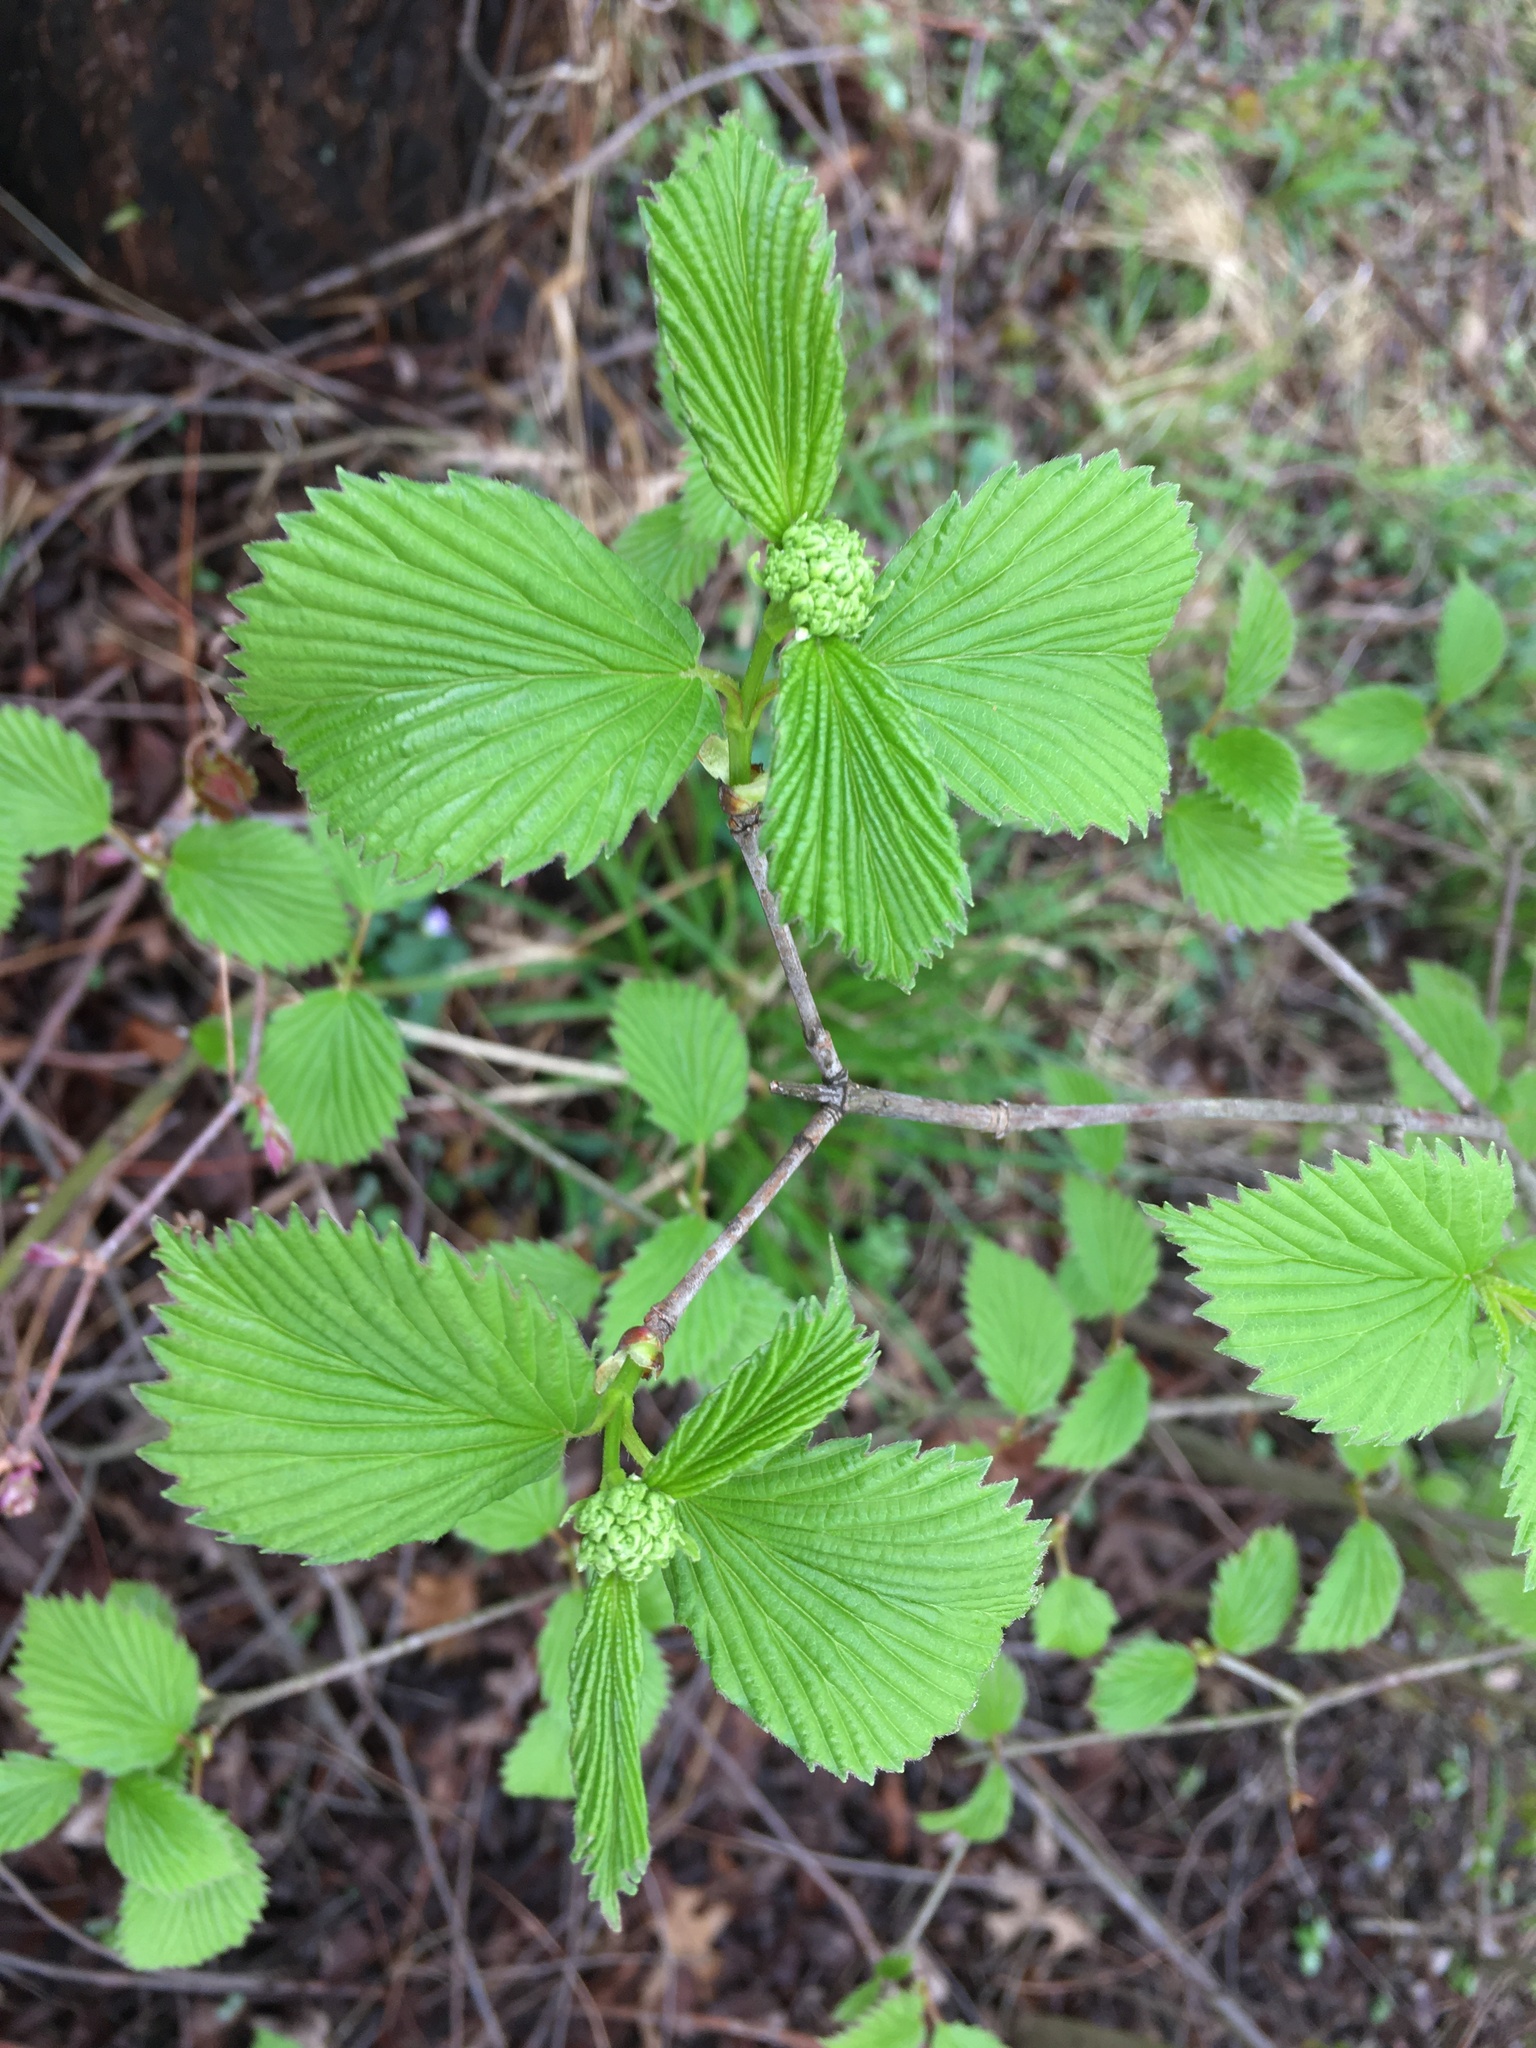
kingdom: Plantae
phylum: Tracheophyta
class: Magnoliopsida
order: Dipsacales
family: Viburnaceae
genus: Viburnum
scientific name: Viburnum dentatum
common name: Arrow-wood
